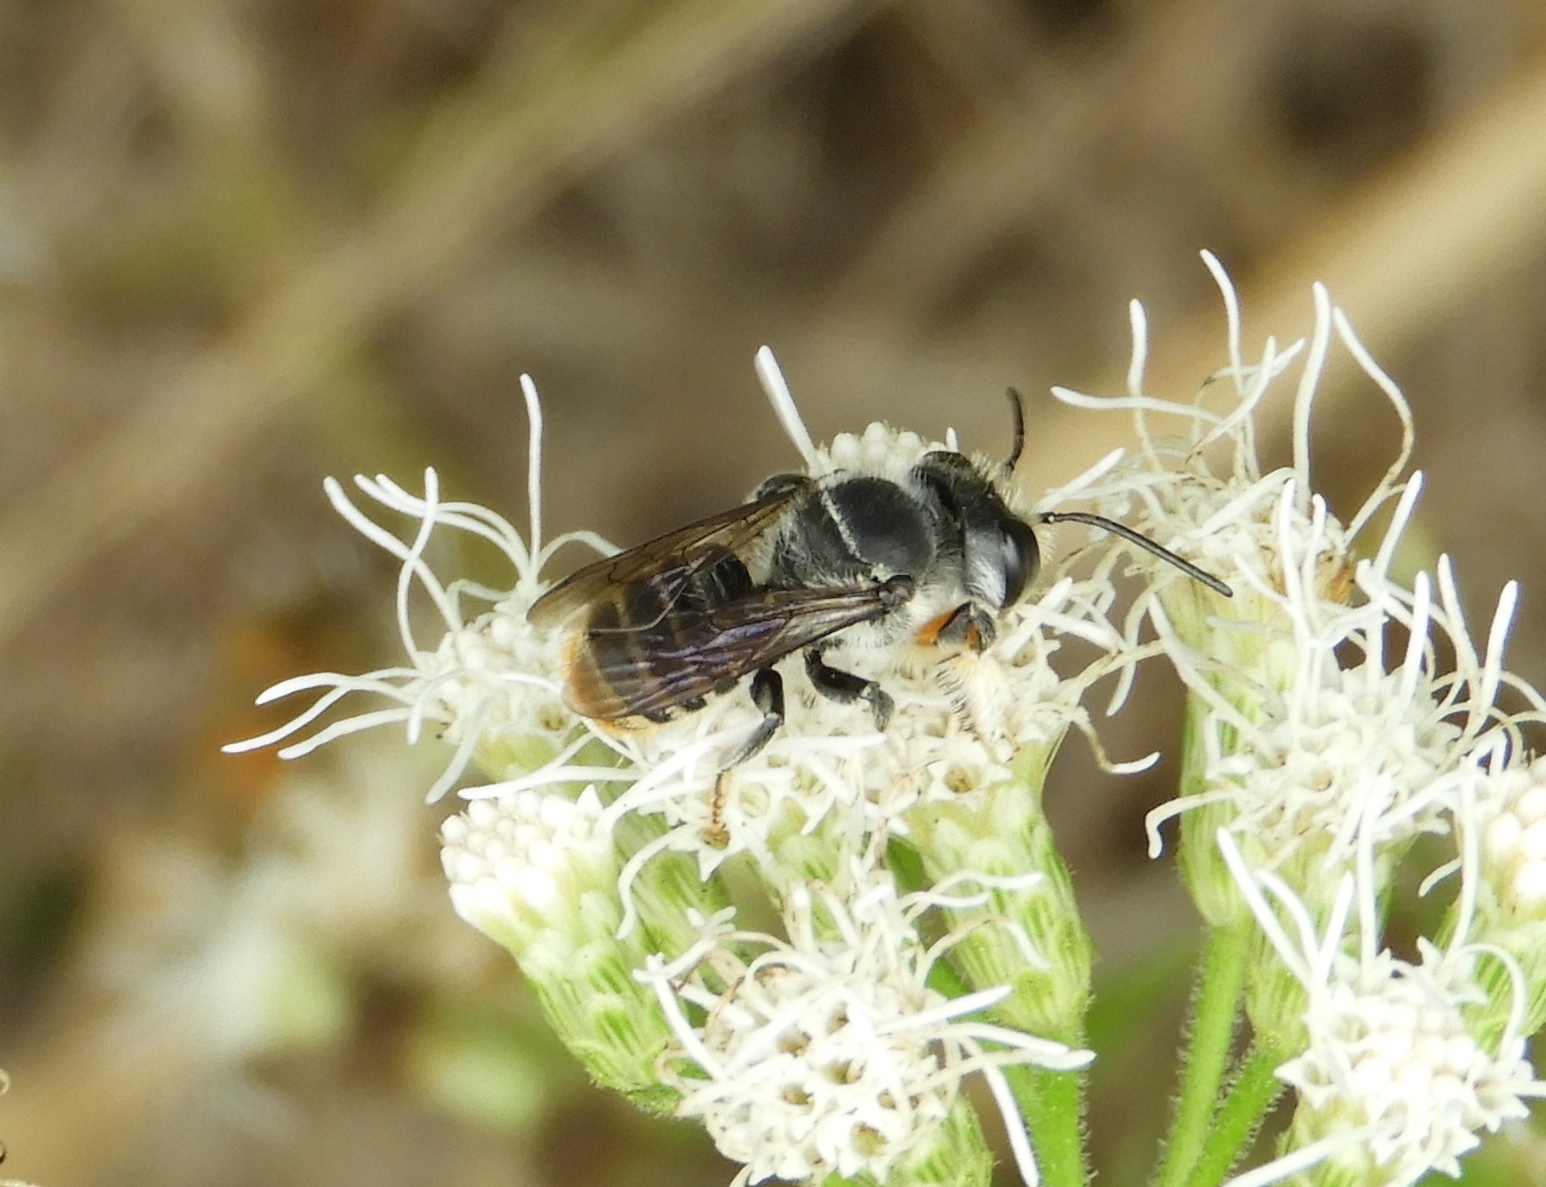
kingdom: Animalia
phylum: Arthropoda
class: Insecta
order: Hymenoptera
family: Megachilidae
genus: Megachile
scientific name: Megachile
